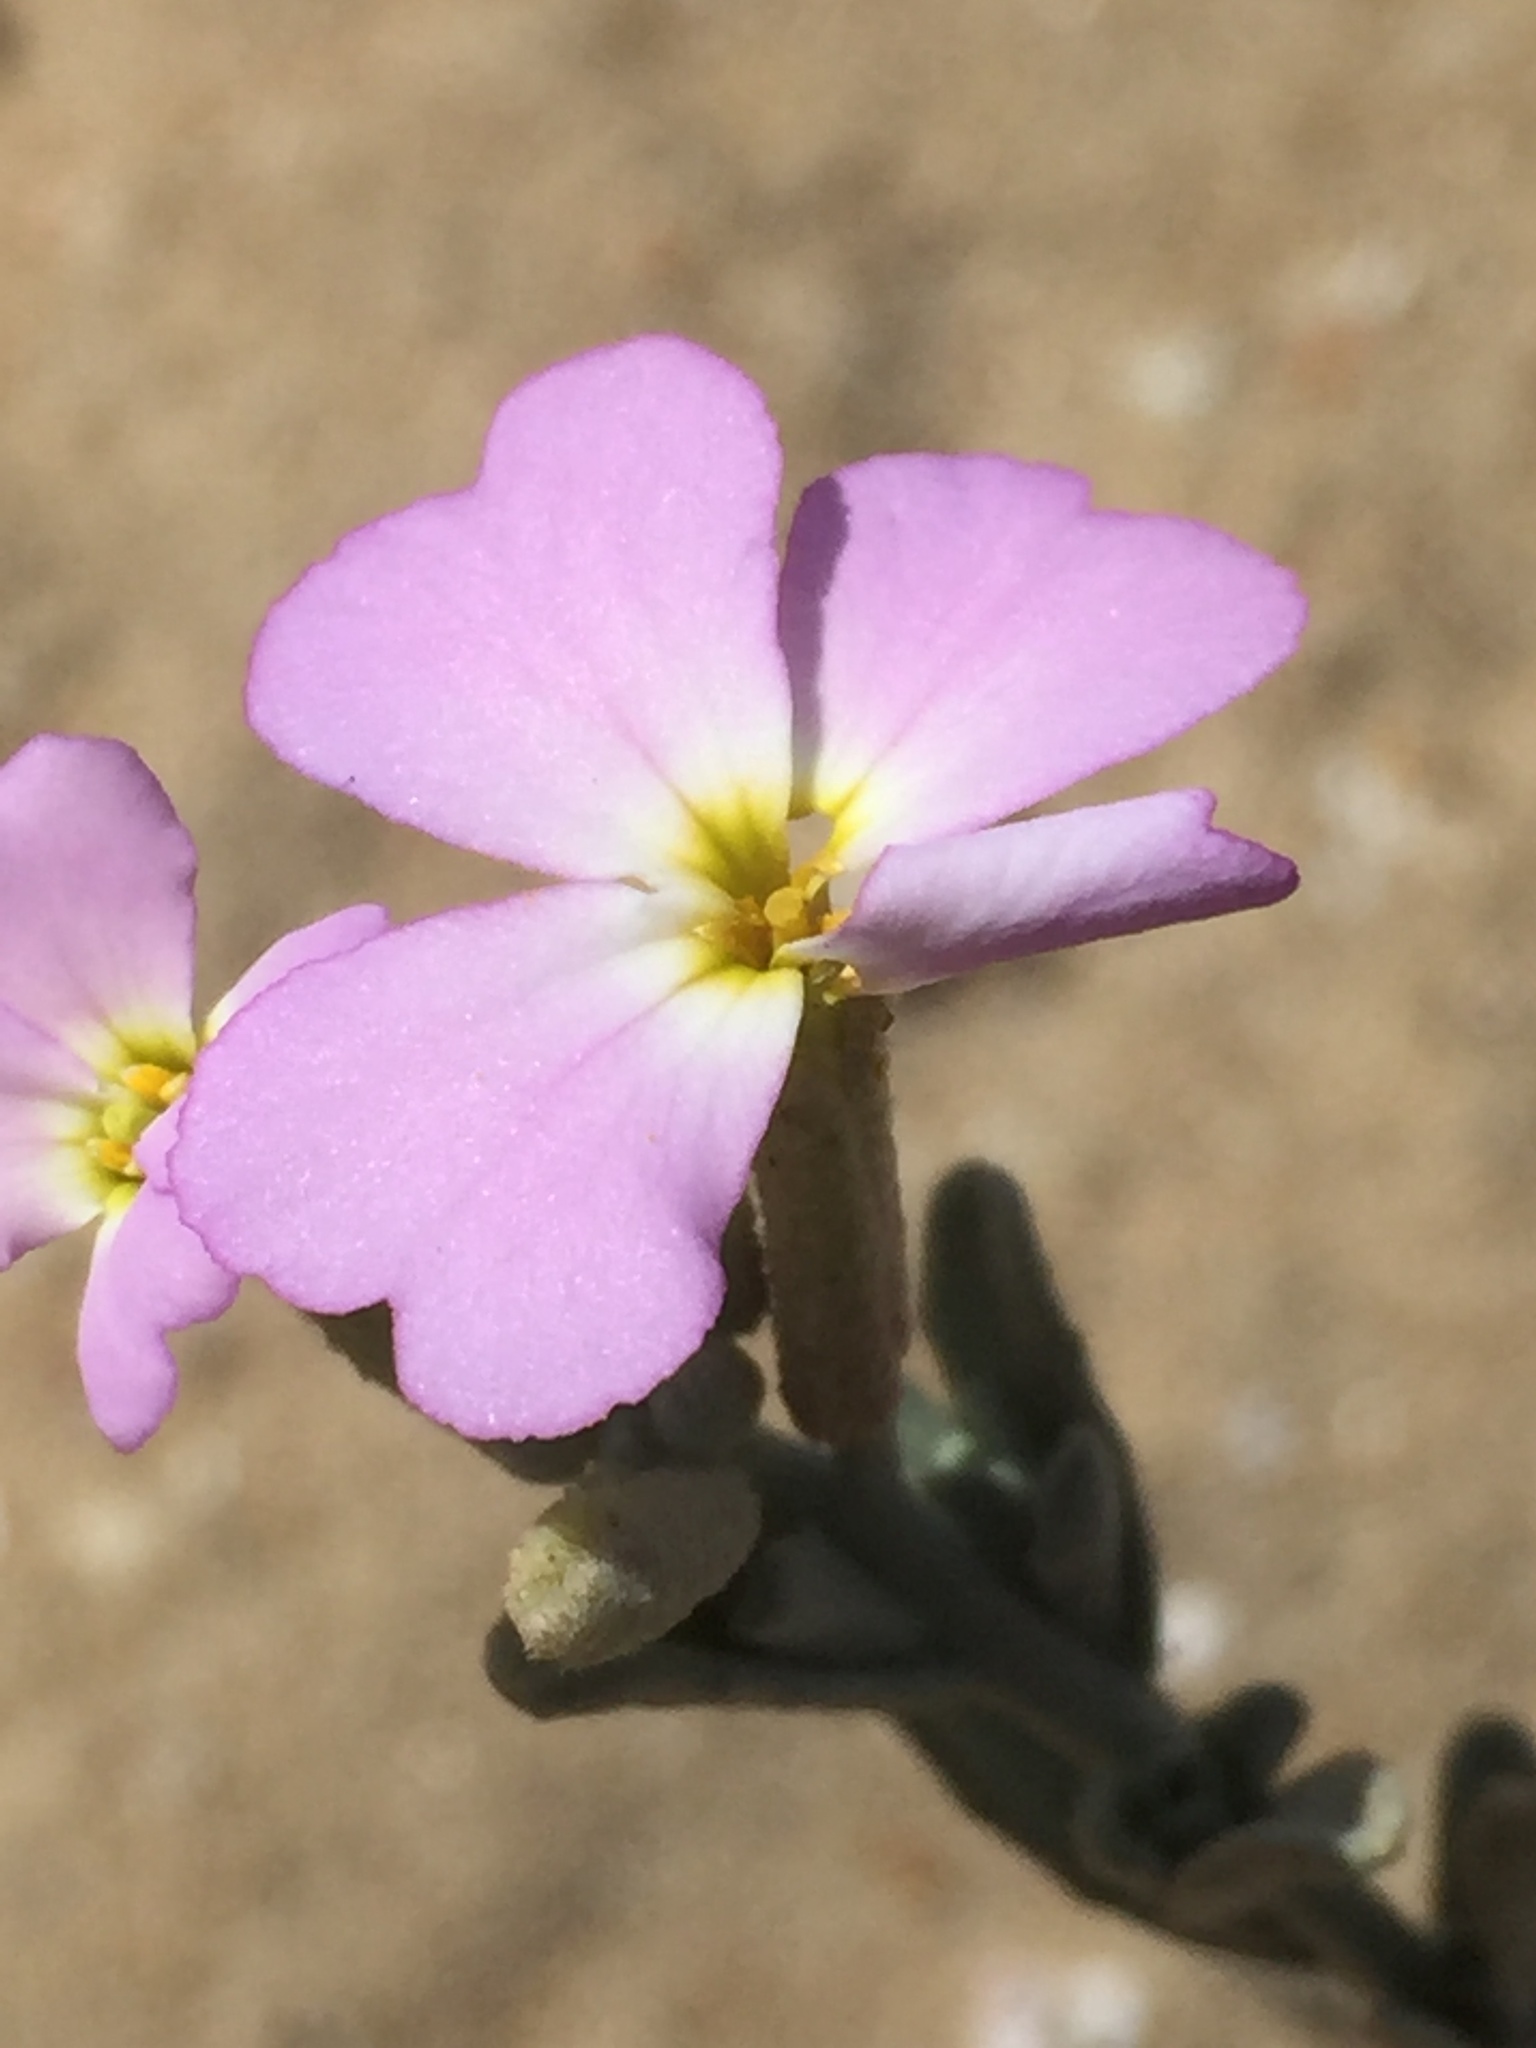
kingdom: Plantae
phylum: Tracheophyta
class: Magnoliopsida
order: Brassicales
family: Brassicaceae
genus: Marcuskochia
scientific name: Marcuskochia littorea
